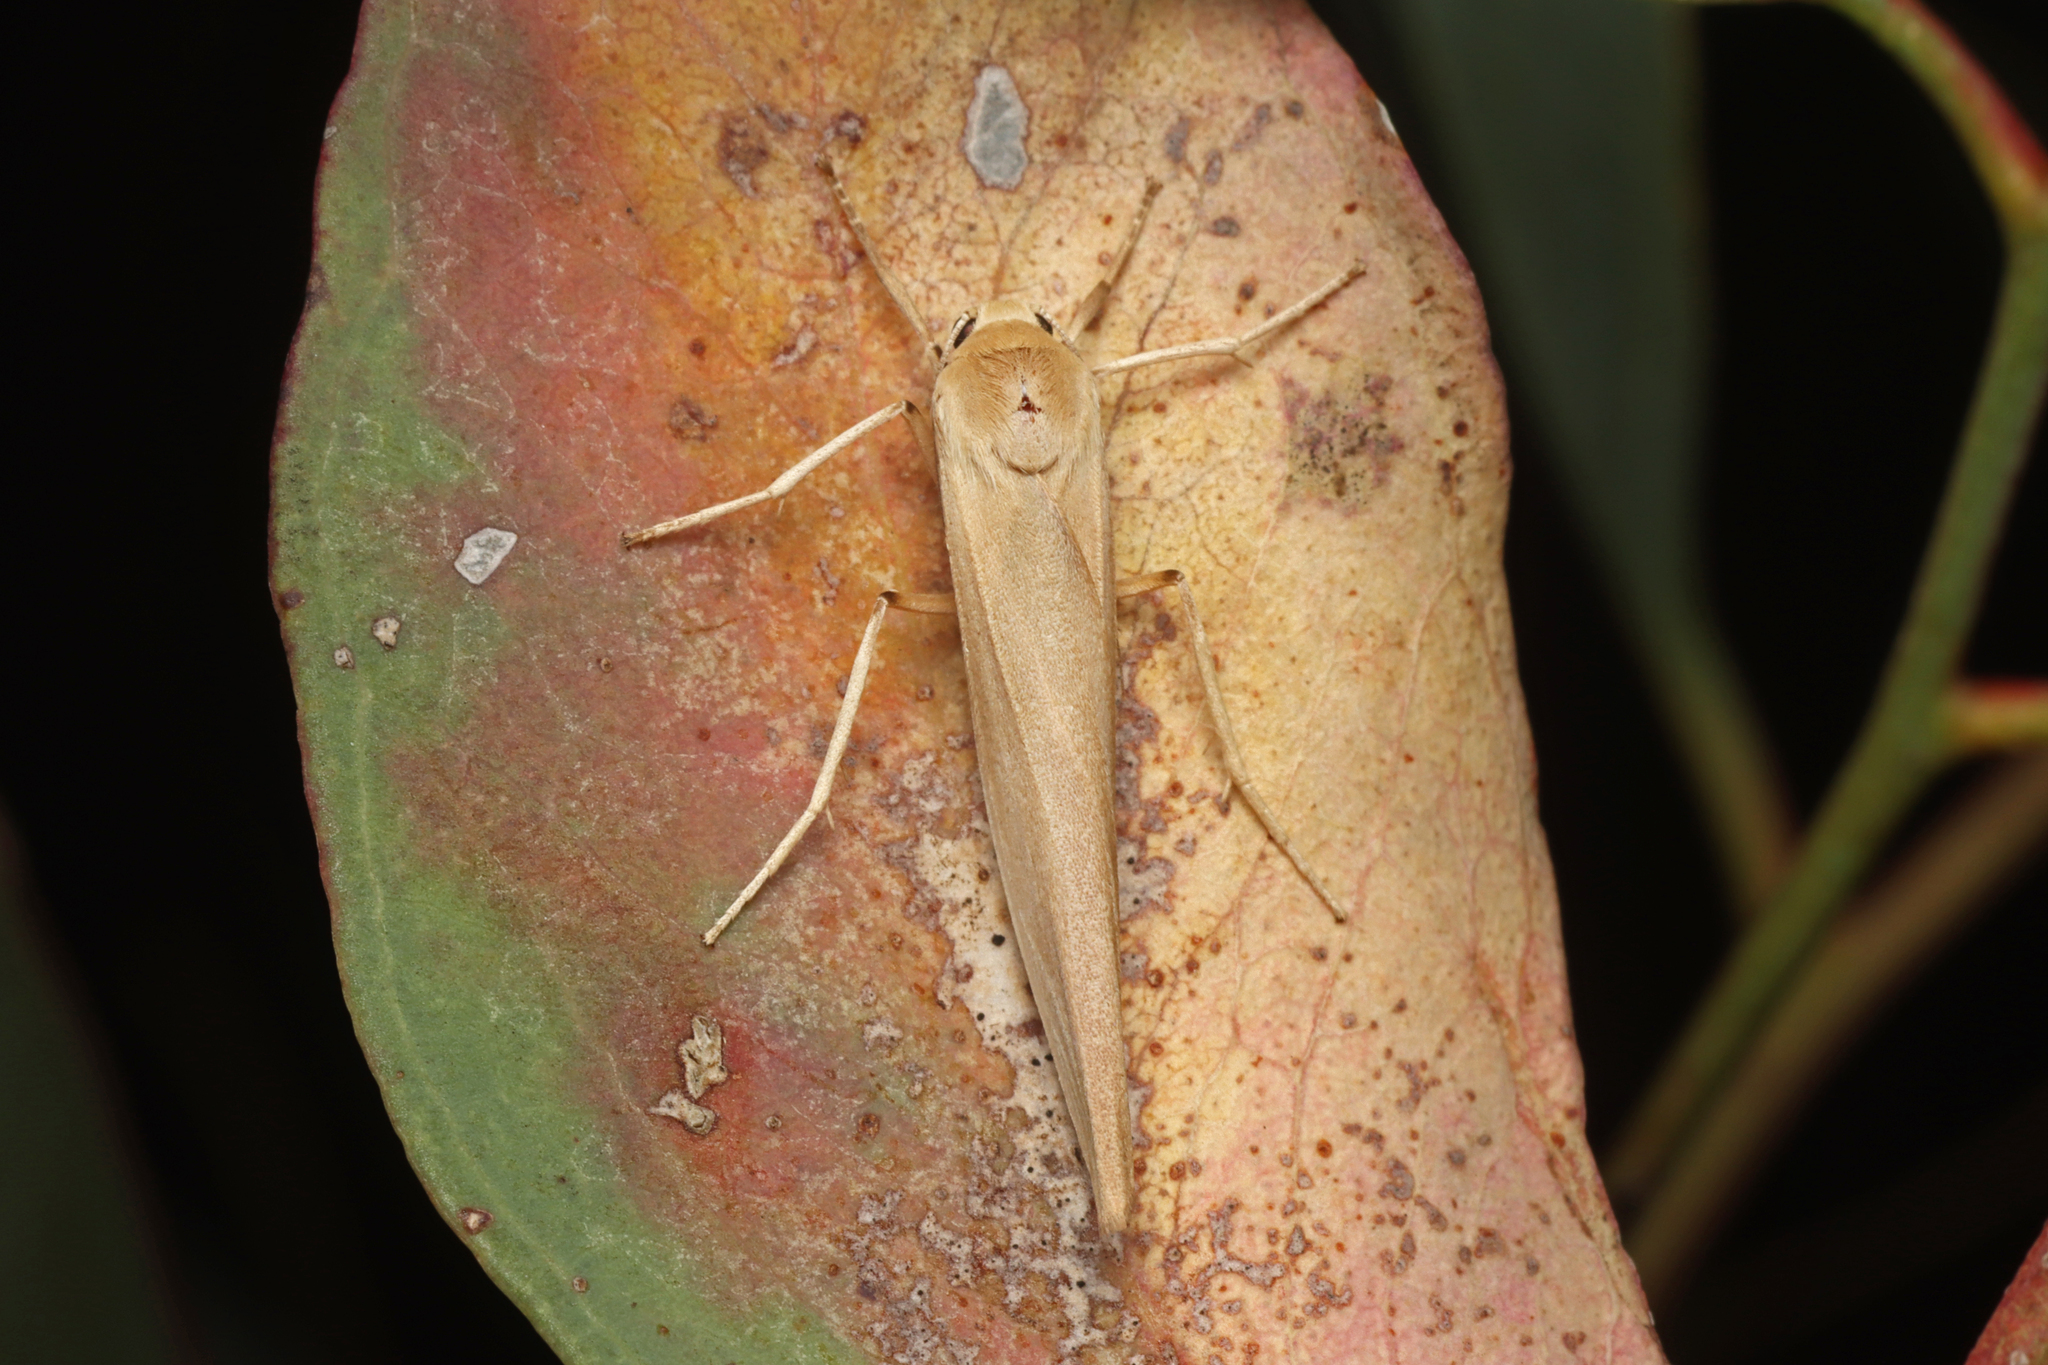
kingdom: Animalia
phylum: Arthropoda
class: Insecta
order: Lepidoptera
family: Erebidae
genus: Calamidia
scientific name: Calamidia hirta
